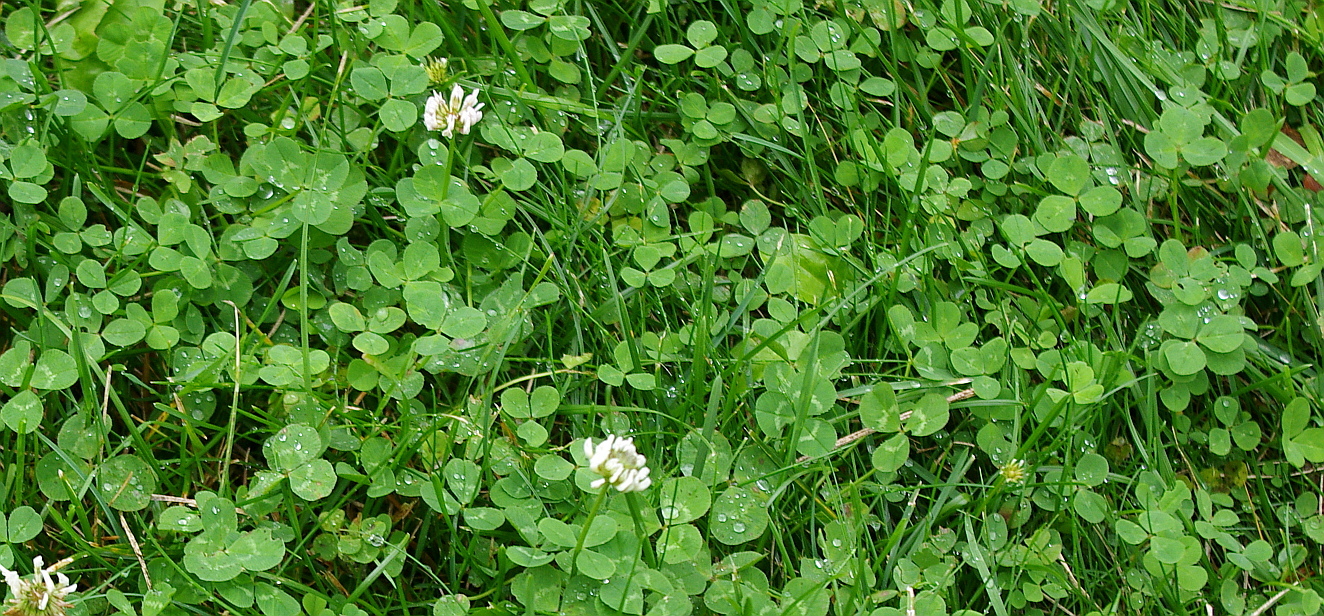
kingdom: Plantae
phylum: Tracheophyta
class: Magnoliopsida
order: Fabales
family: Fabaceae
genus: Trifolium
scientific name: Trifolium repens
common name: White clover
